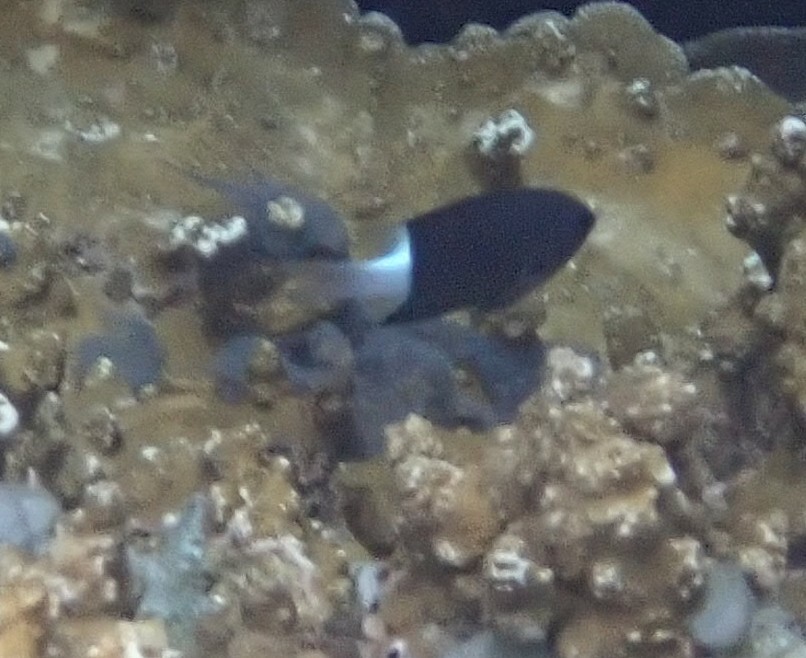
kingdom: Animalia
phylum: Chordata
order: Perciformes
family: Pomacentridae
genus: Pycnochromis
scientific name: Pycnochromis margaritifer
